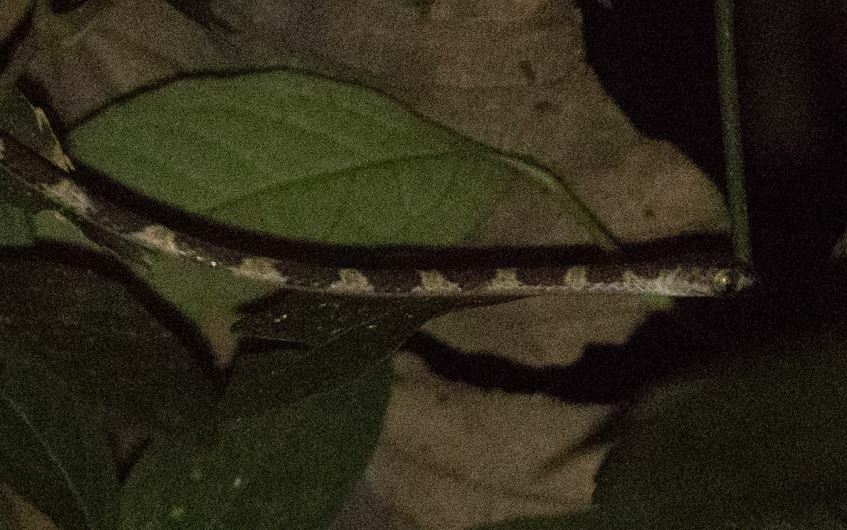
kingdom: Animalia
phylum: Chordata
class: Squamata
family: Colubridae
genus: Imantodes
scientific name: Imantodes cenchoa
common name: Blunthead tree snake
